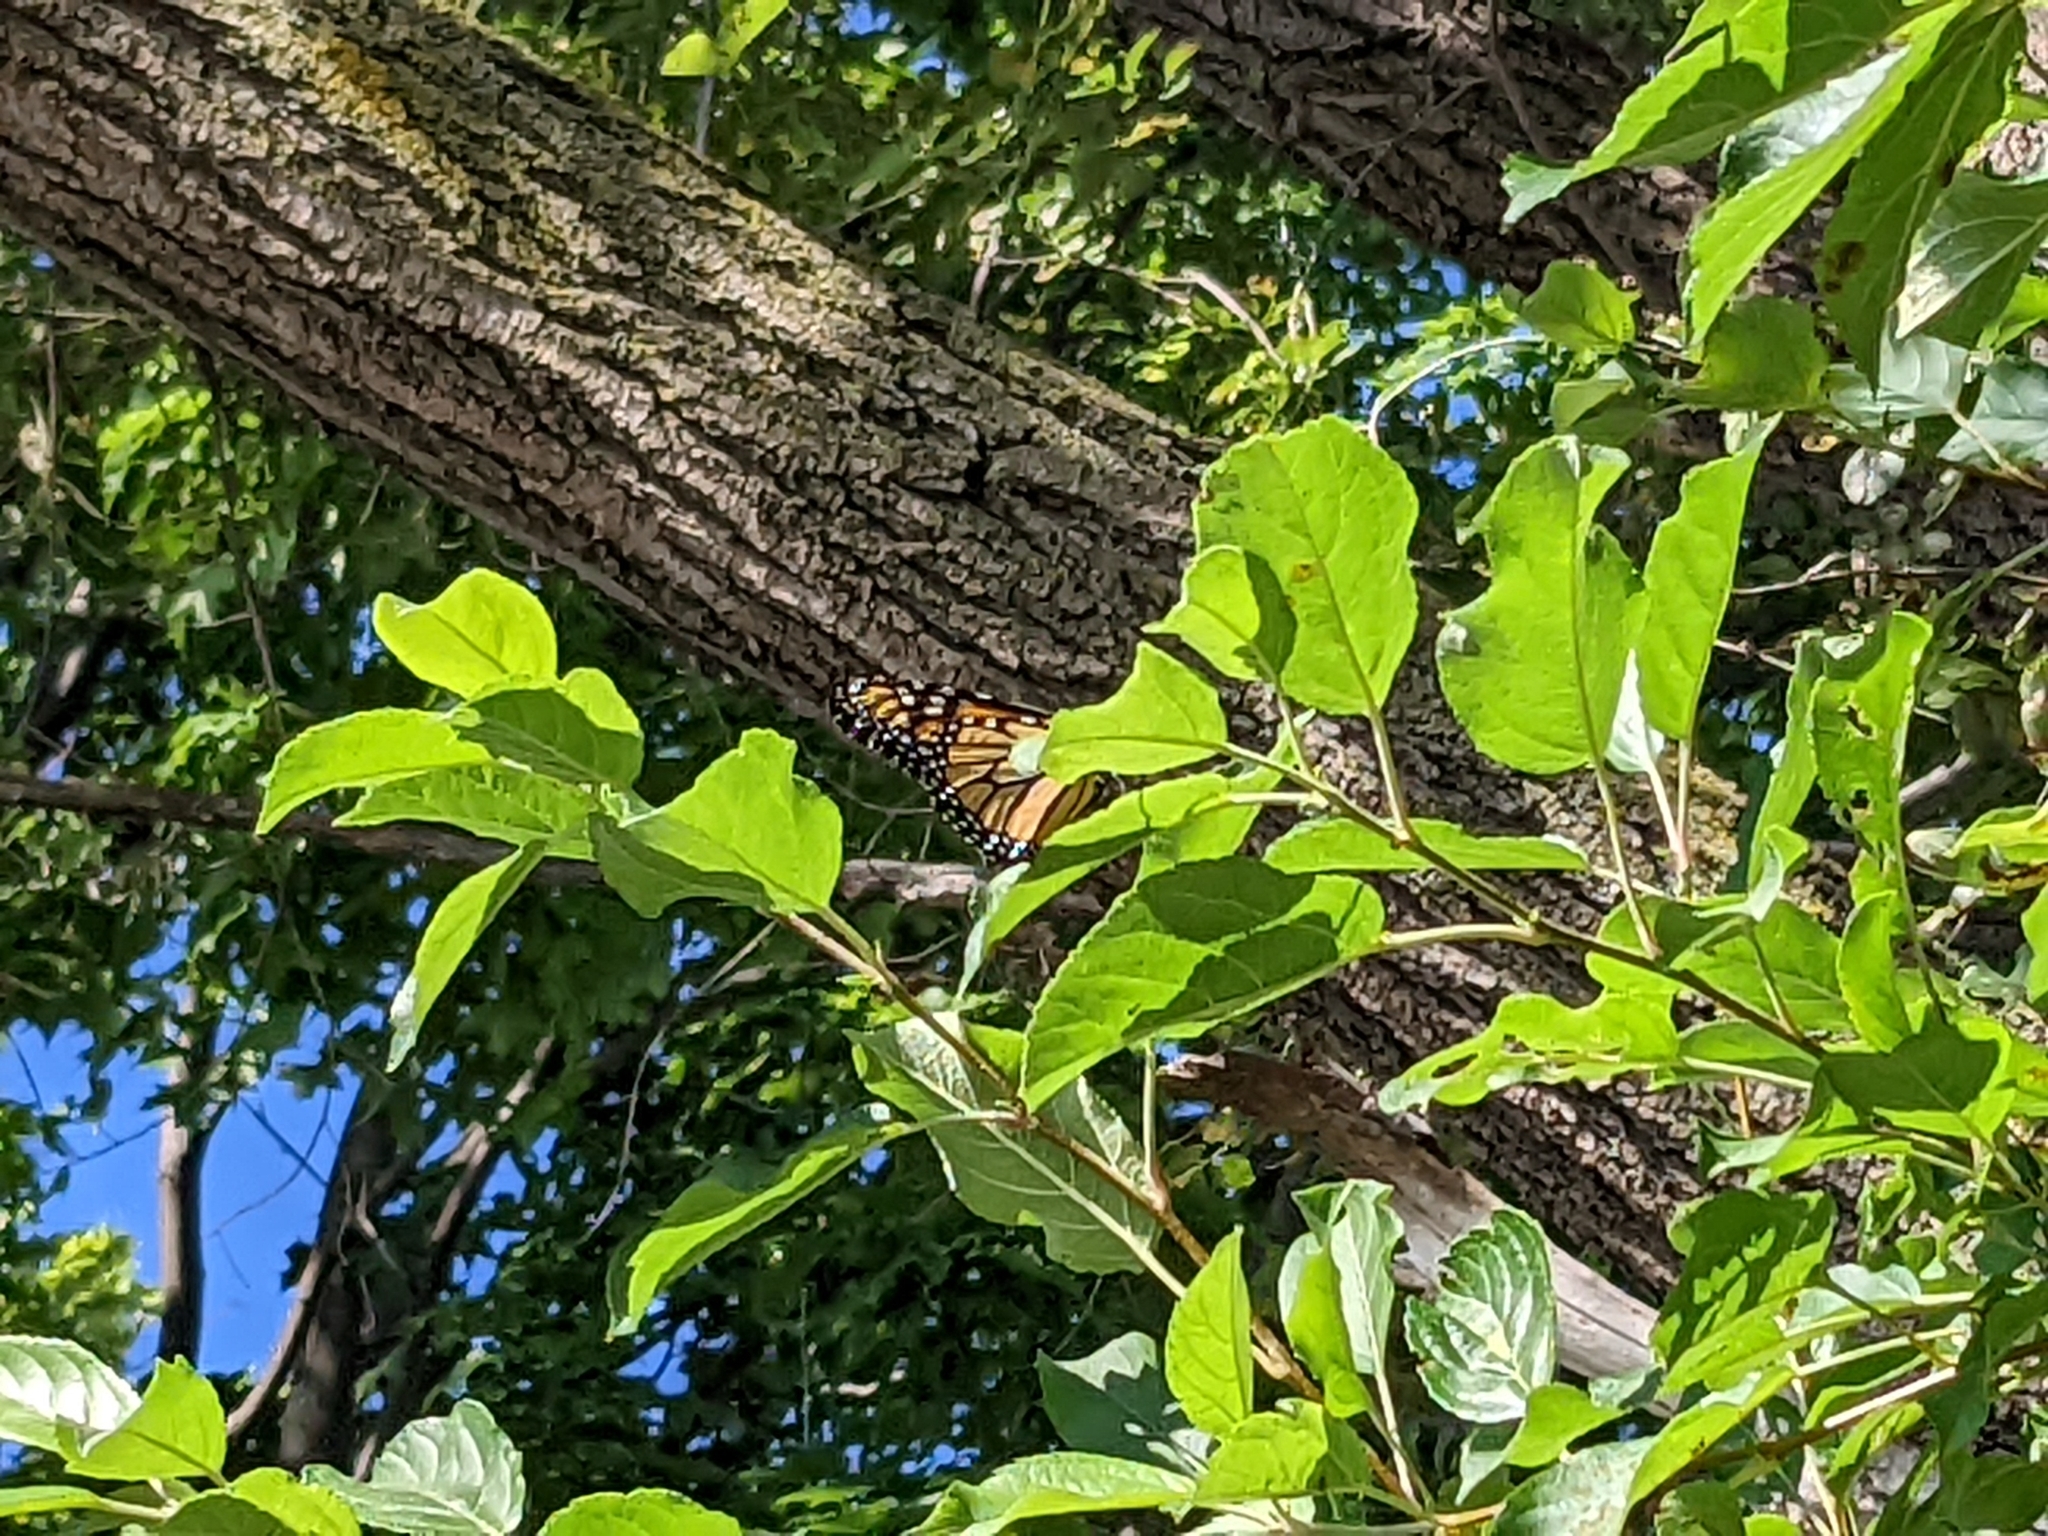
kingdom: Animalia
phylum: Arthropoda
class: Insecta
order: Lepidoptera
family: Nymphalidae
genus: Danaus
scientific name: Danaus plexippus
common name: Monarch
